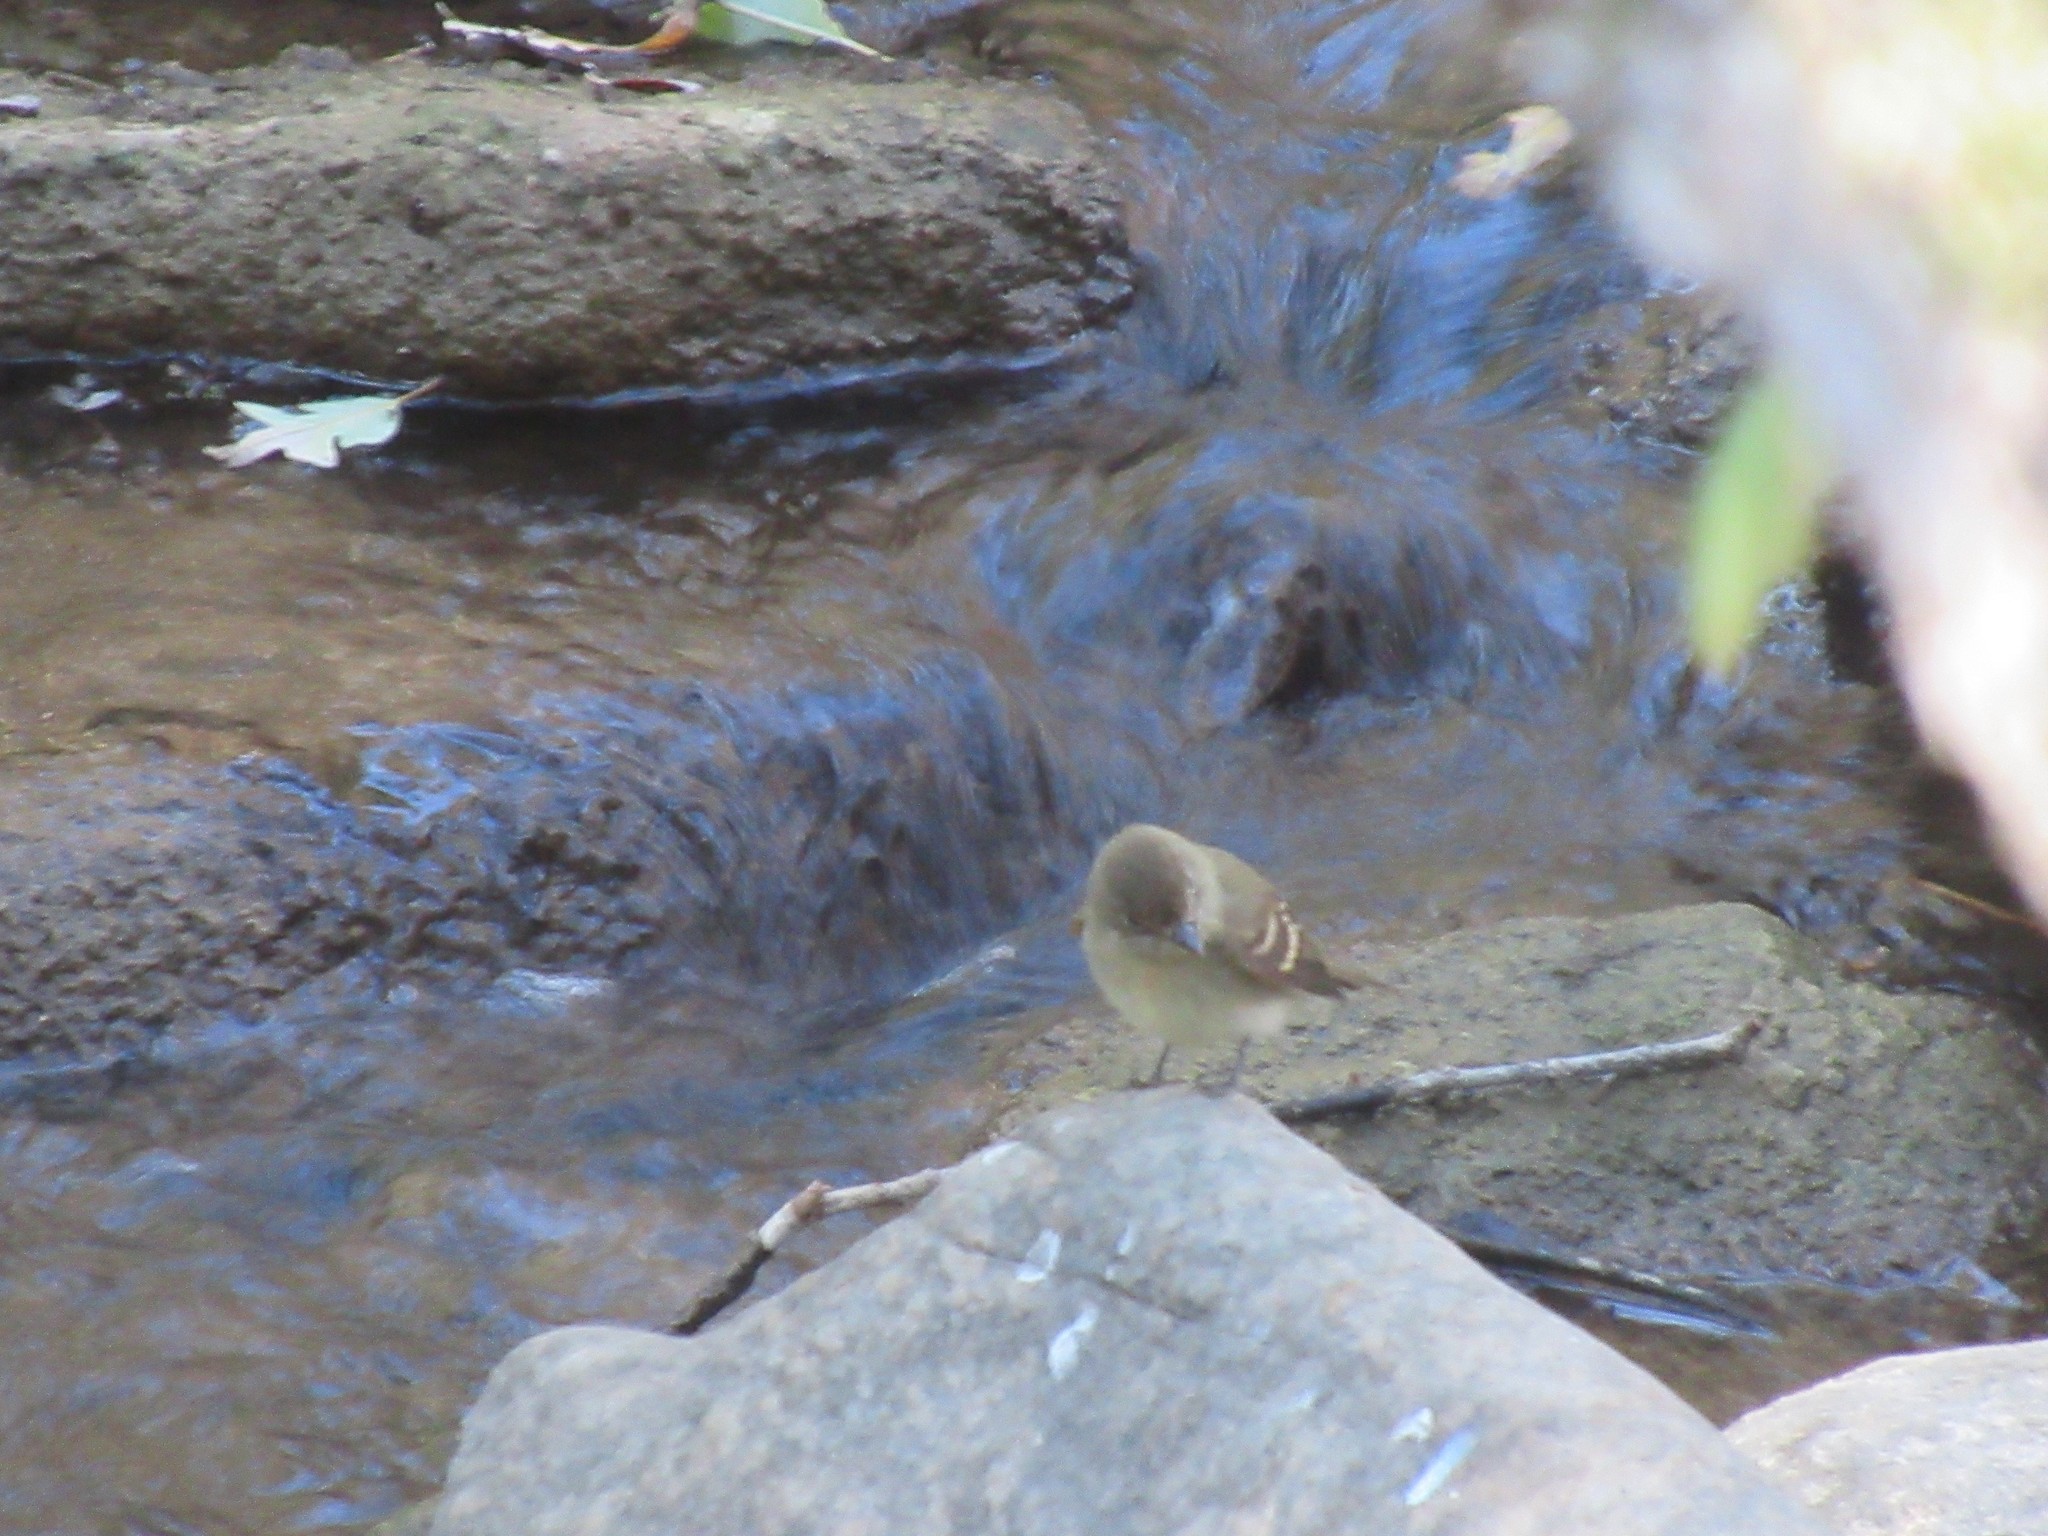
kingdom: Animalia
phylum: Chordata
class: Aves
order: Passeriformes
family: Tyrannidae
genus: Empidonax
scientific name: Empidonax difficilis
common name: Pacific-slope flycatcher
